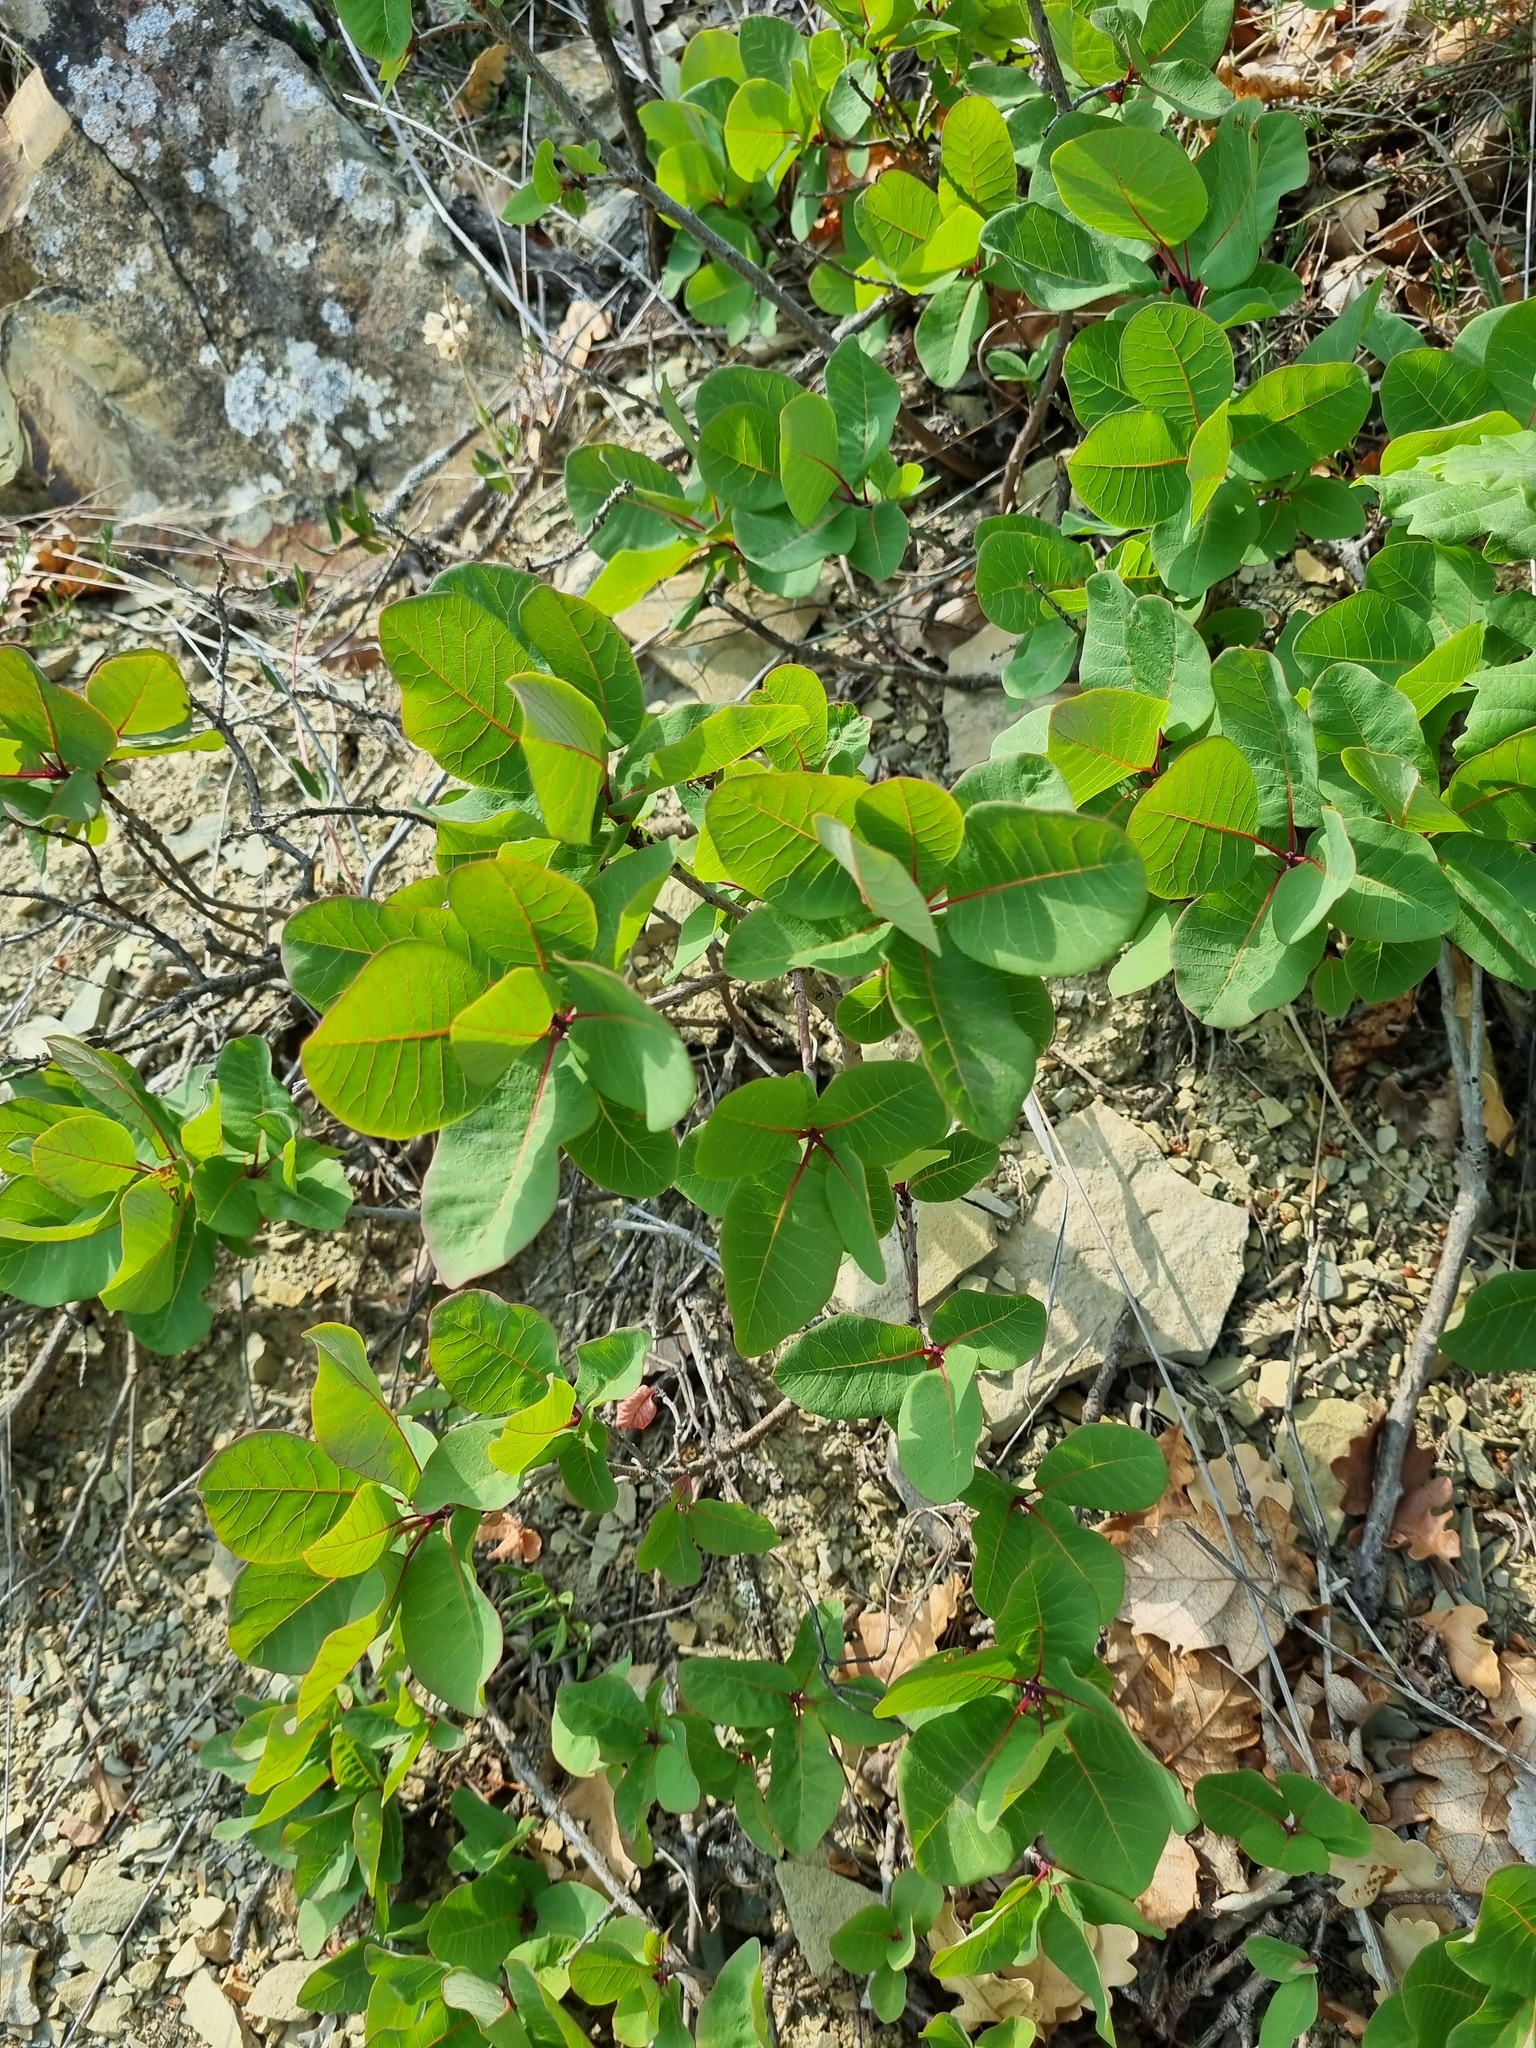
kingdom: Plantae
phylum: Tracheophyta
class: Magnoliopsida
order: Sapindales
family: Anacardiaceae
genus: Cotinus
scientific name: Cotinus coggygria
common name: Smoke-tree
